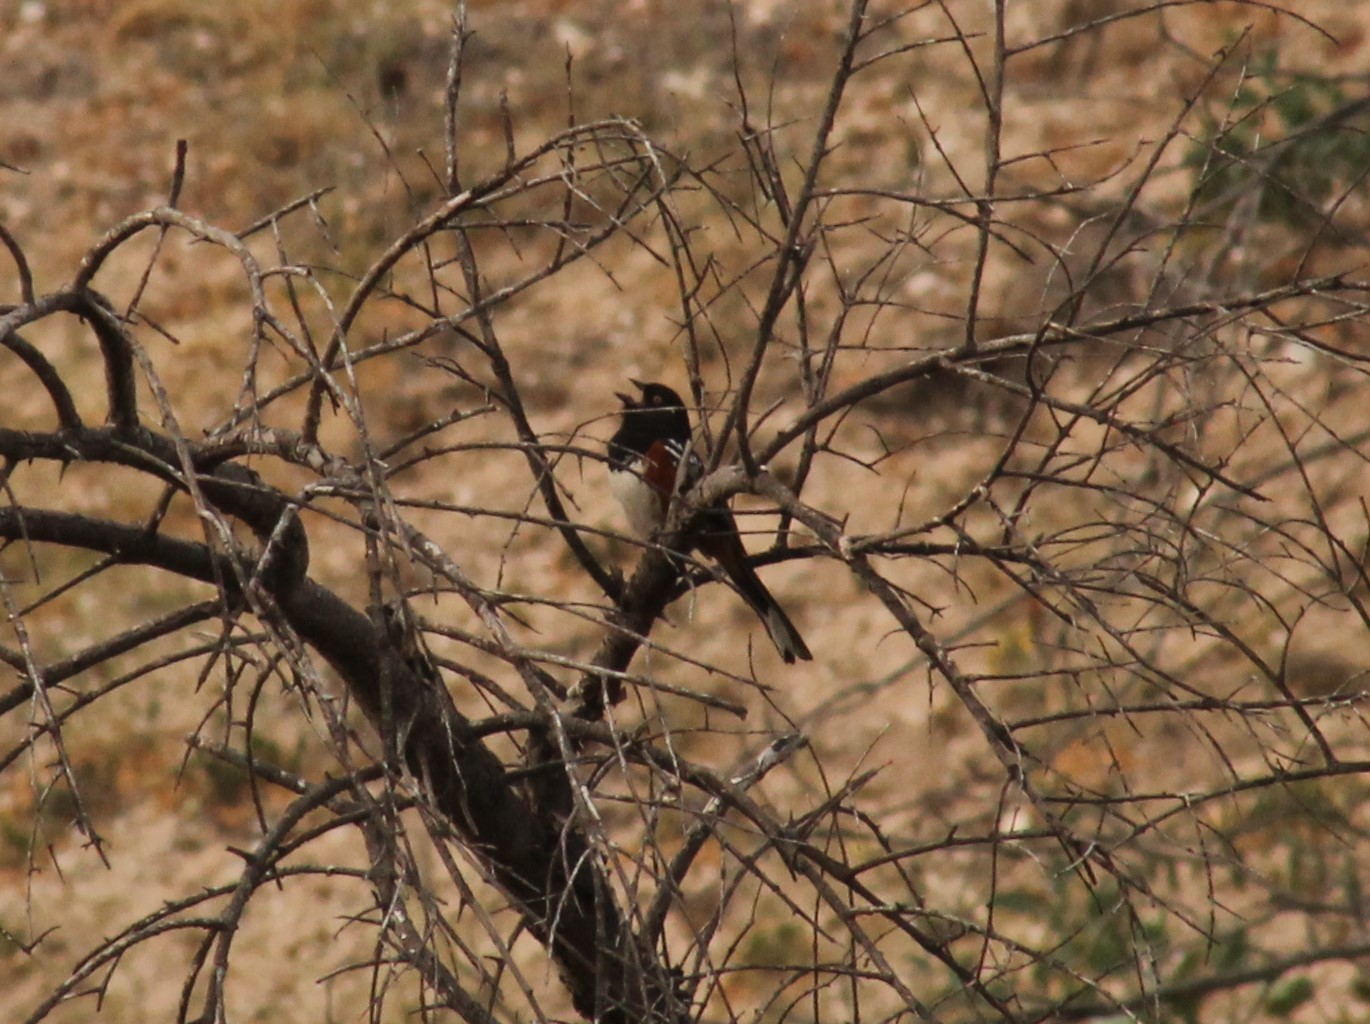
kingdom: Animalia
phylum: Chordata
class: Aves
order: Passeriformes
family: Passerellidae
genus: Pipilo
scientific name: Pipilo maculatus
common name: Spotted towhee
